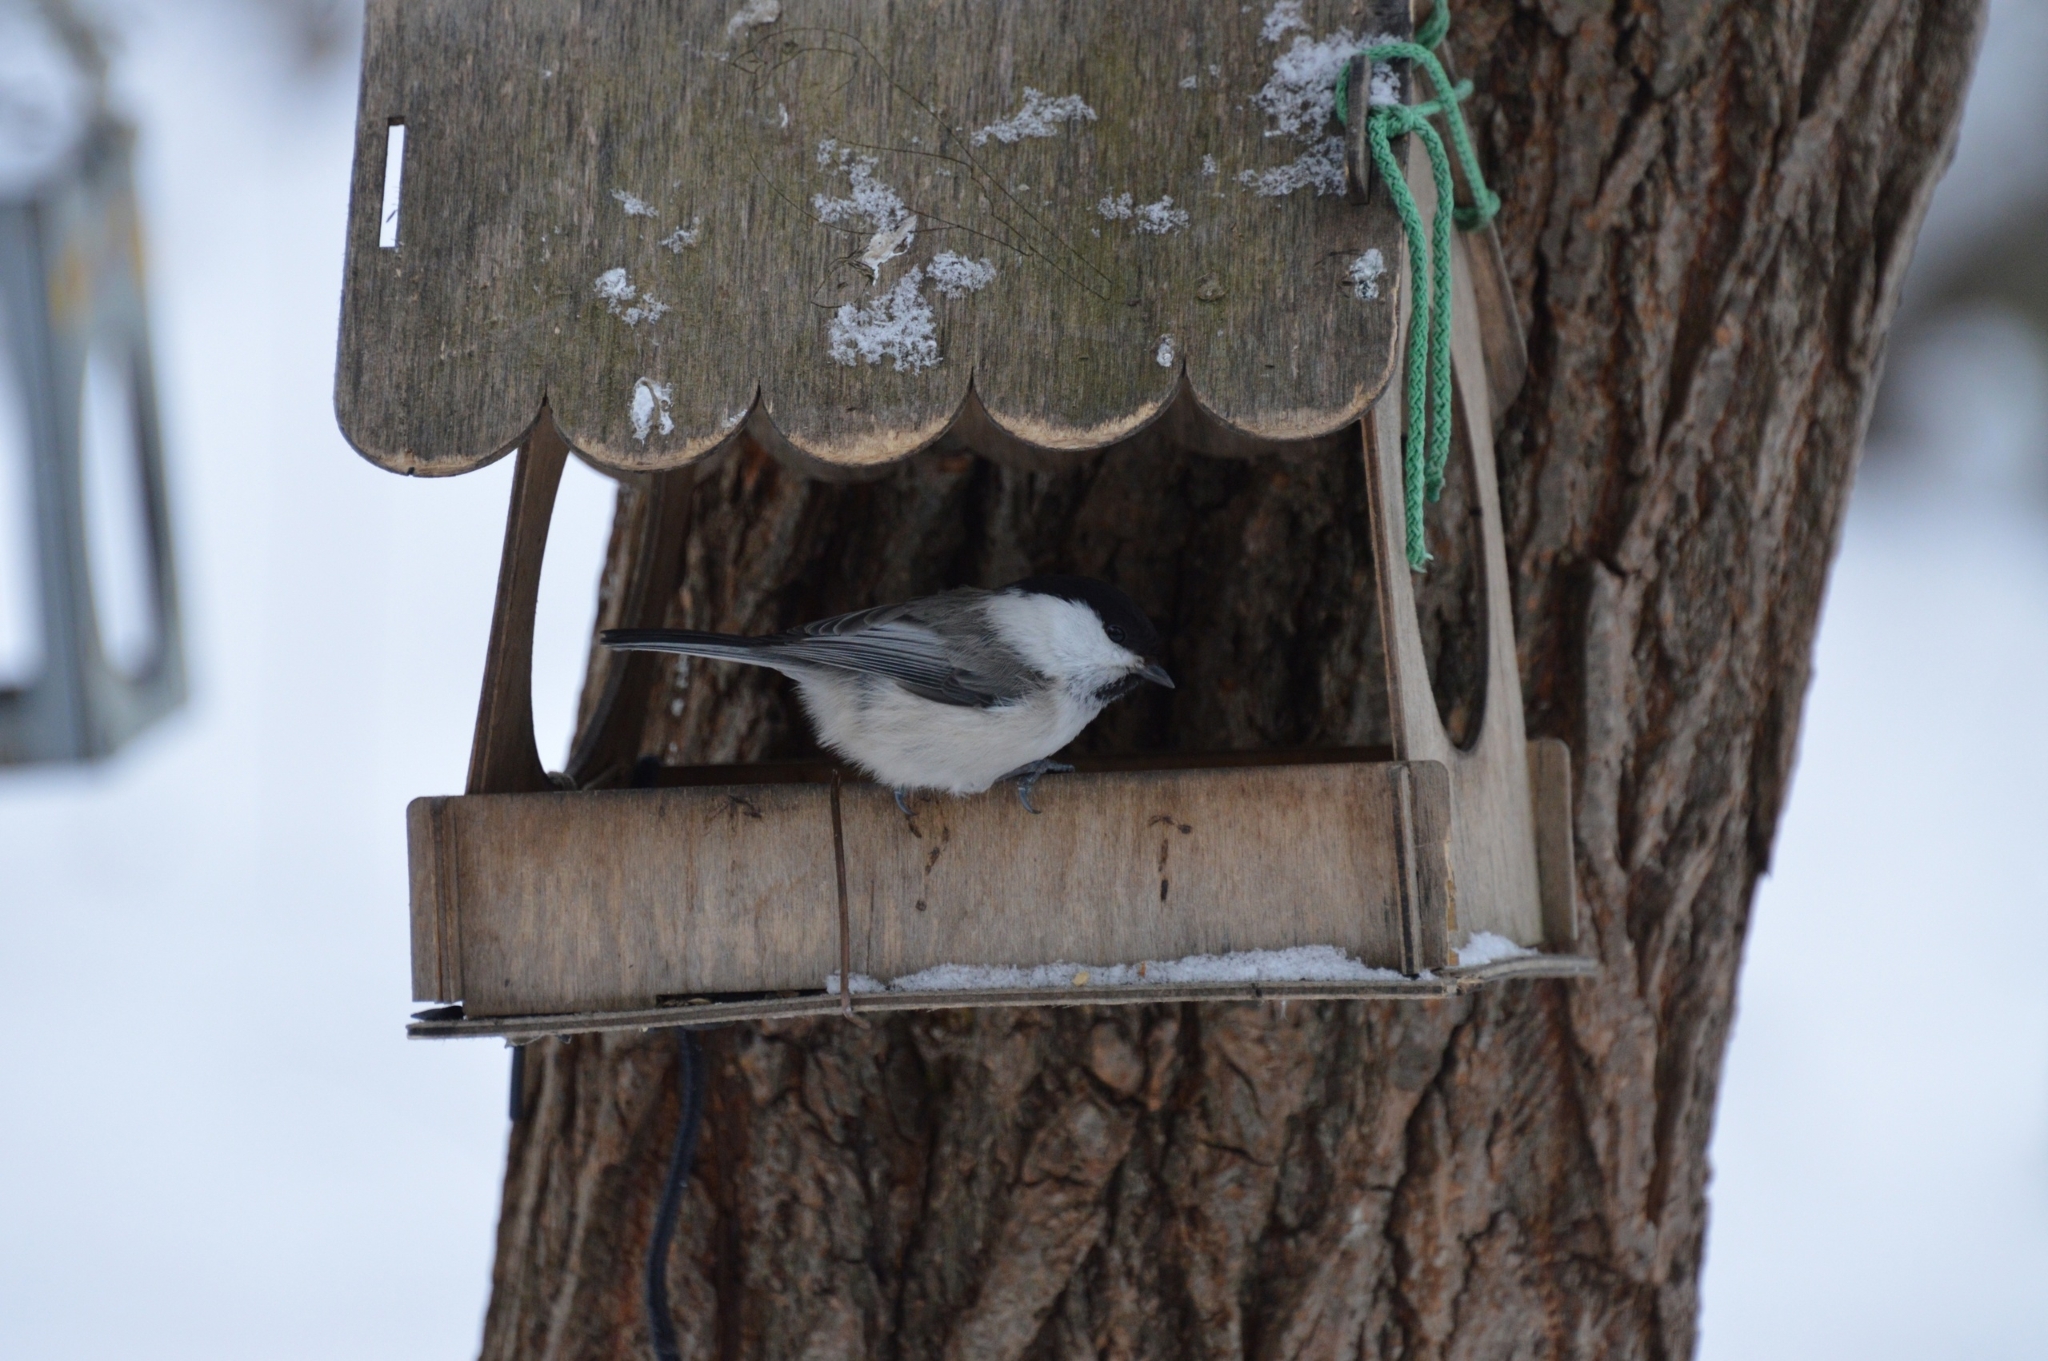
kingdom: Animalia
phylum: Chordata
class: Aves
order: Passeriformes
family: Paridae
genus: Poecile
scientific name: Poecile montanus
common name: Willow tit
